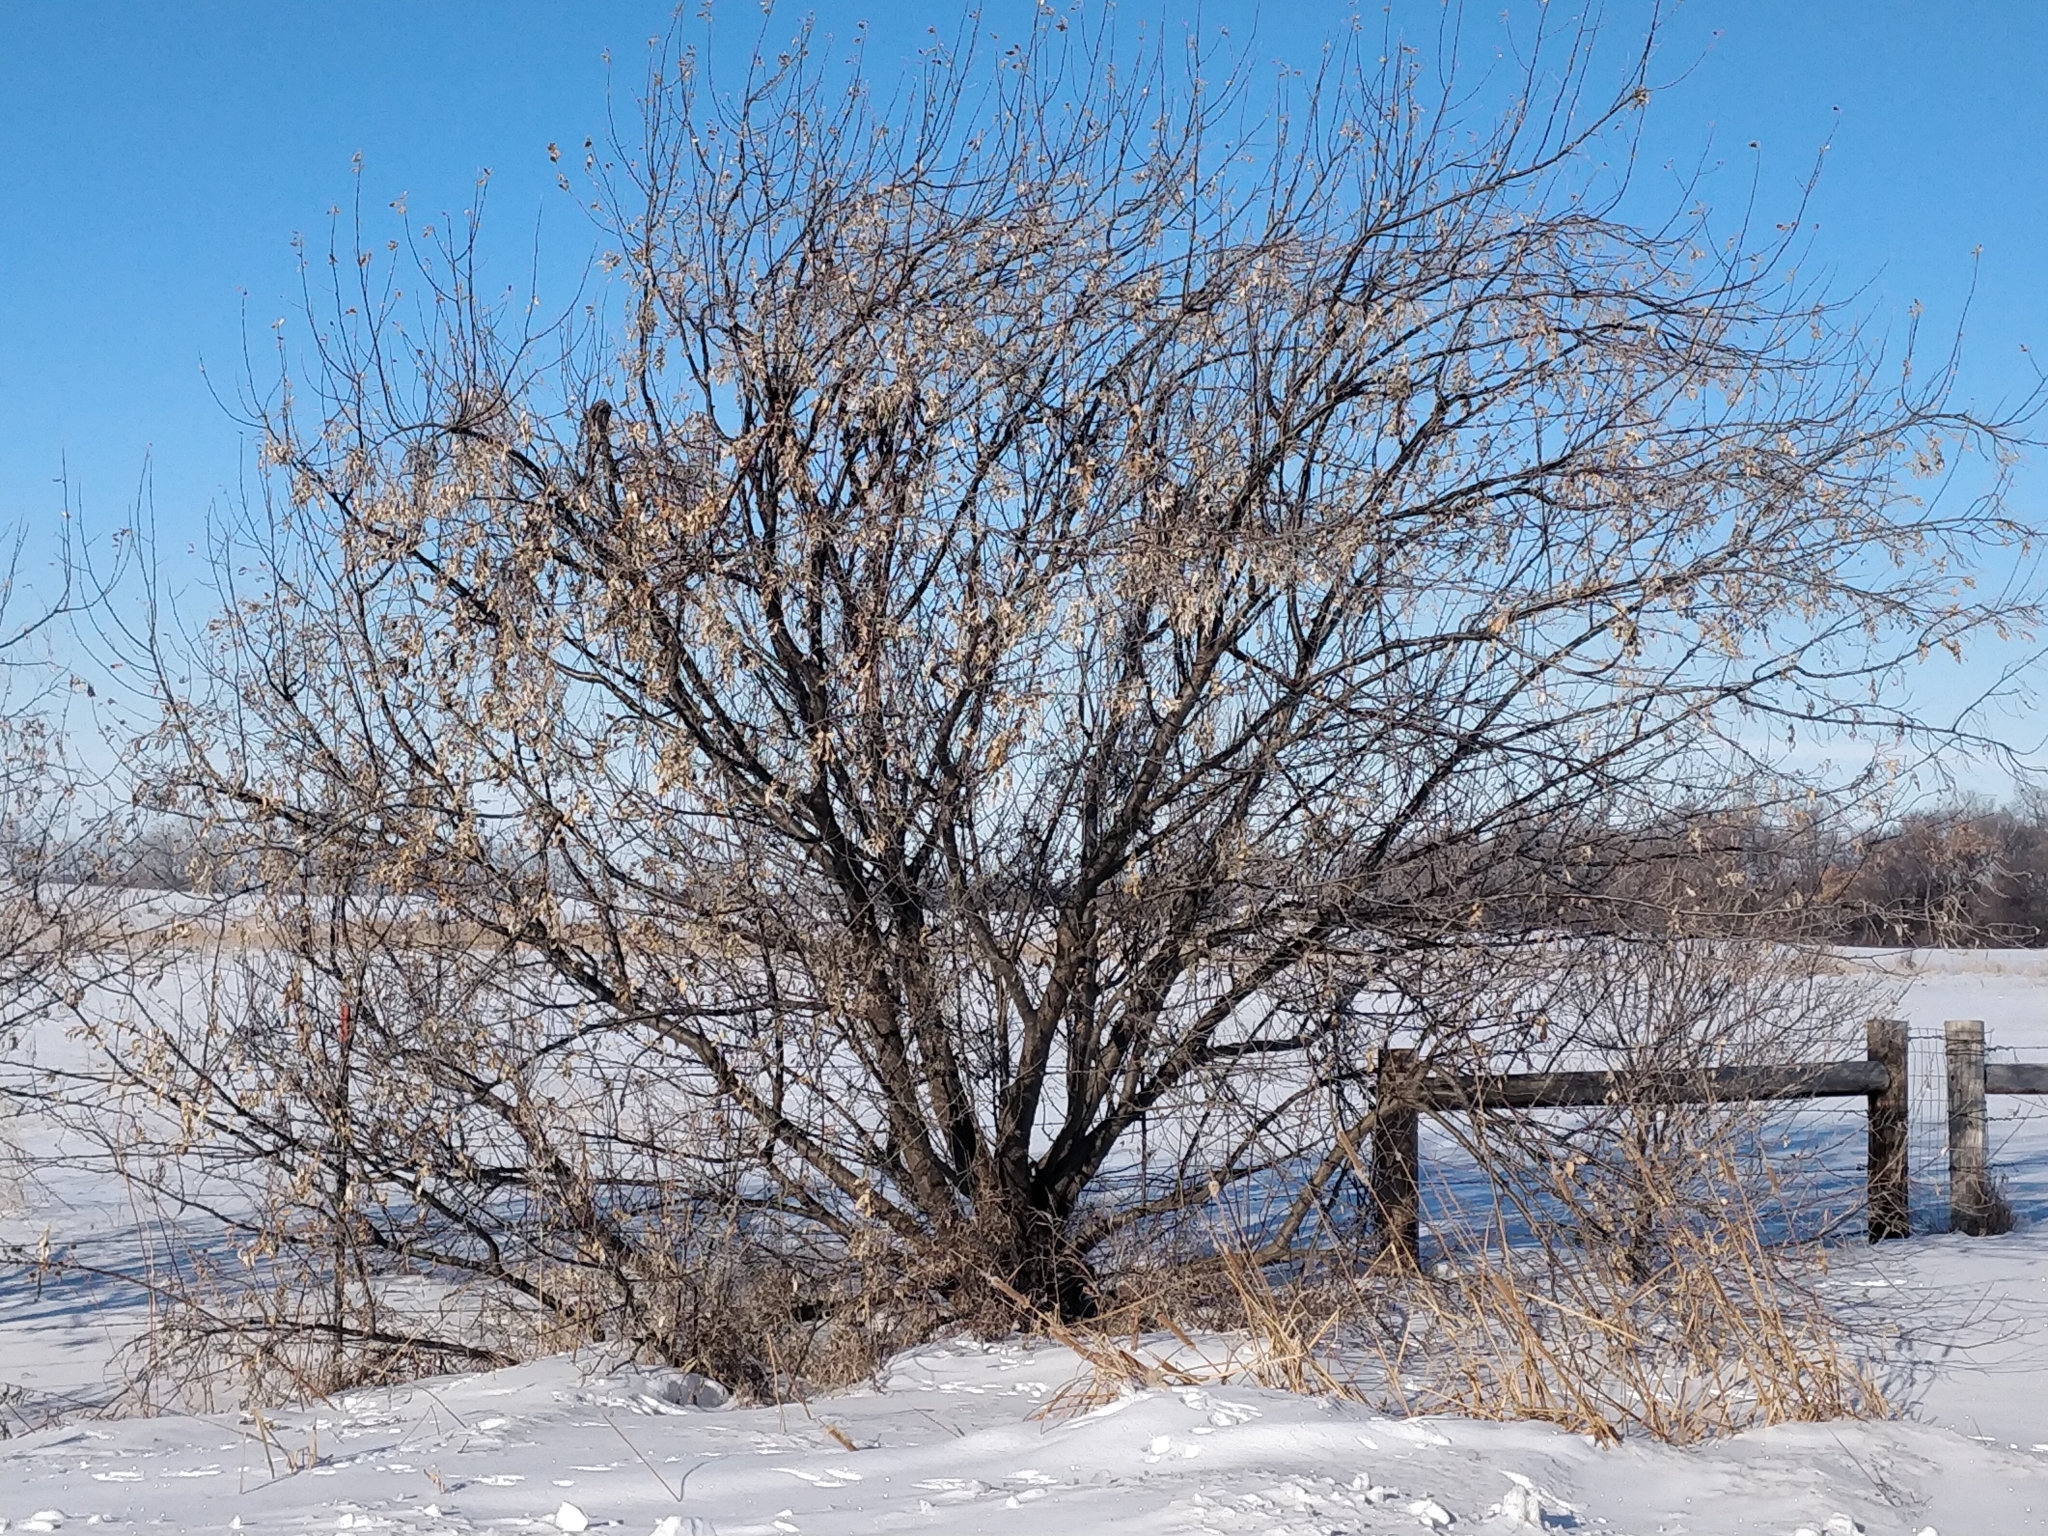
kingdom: Plantae
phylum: Tracheophyta
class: Magnoliopsida
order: Rosales
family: Elaeagnaceae
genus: Elaeagnus
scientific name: Elaeagnus angustifolia
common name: Russian olive
